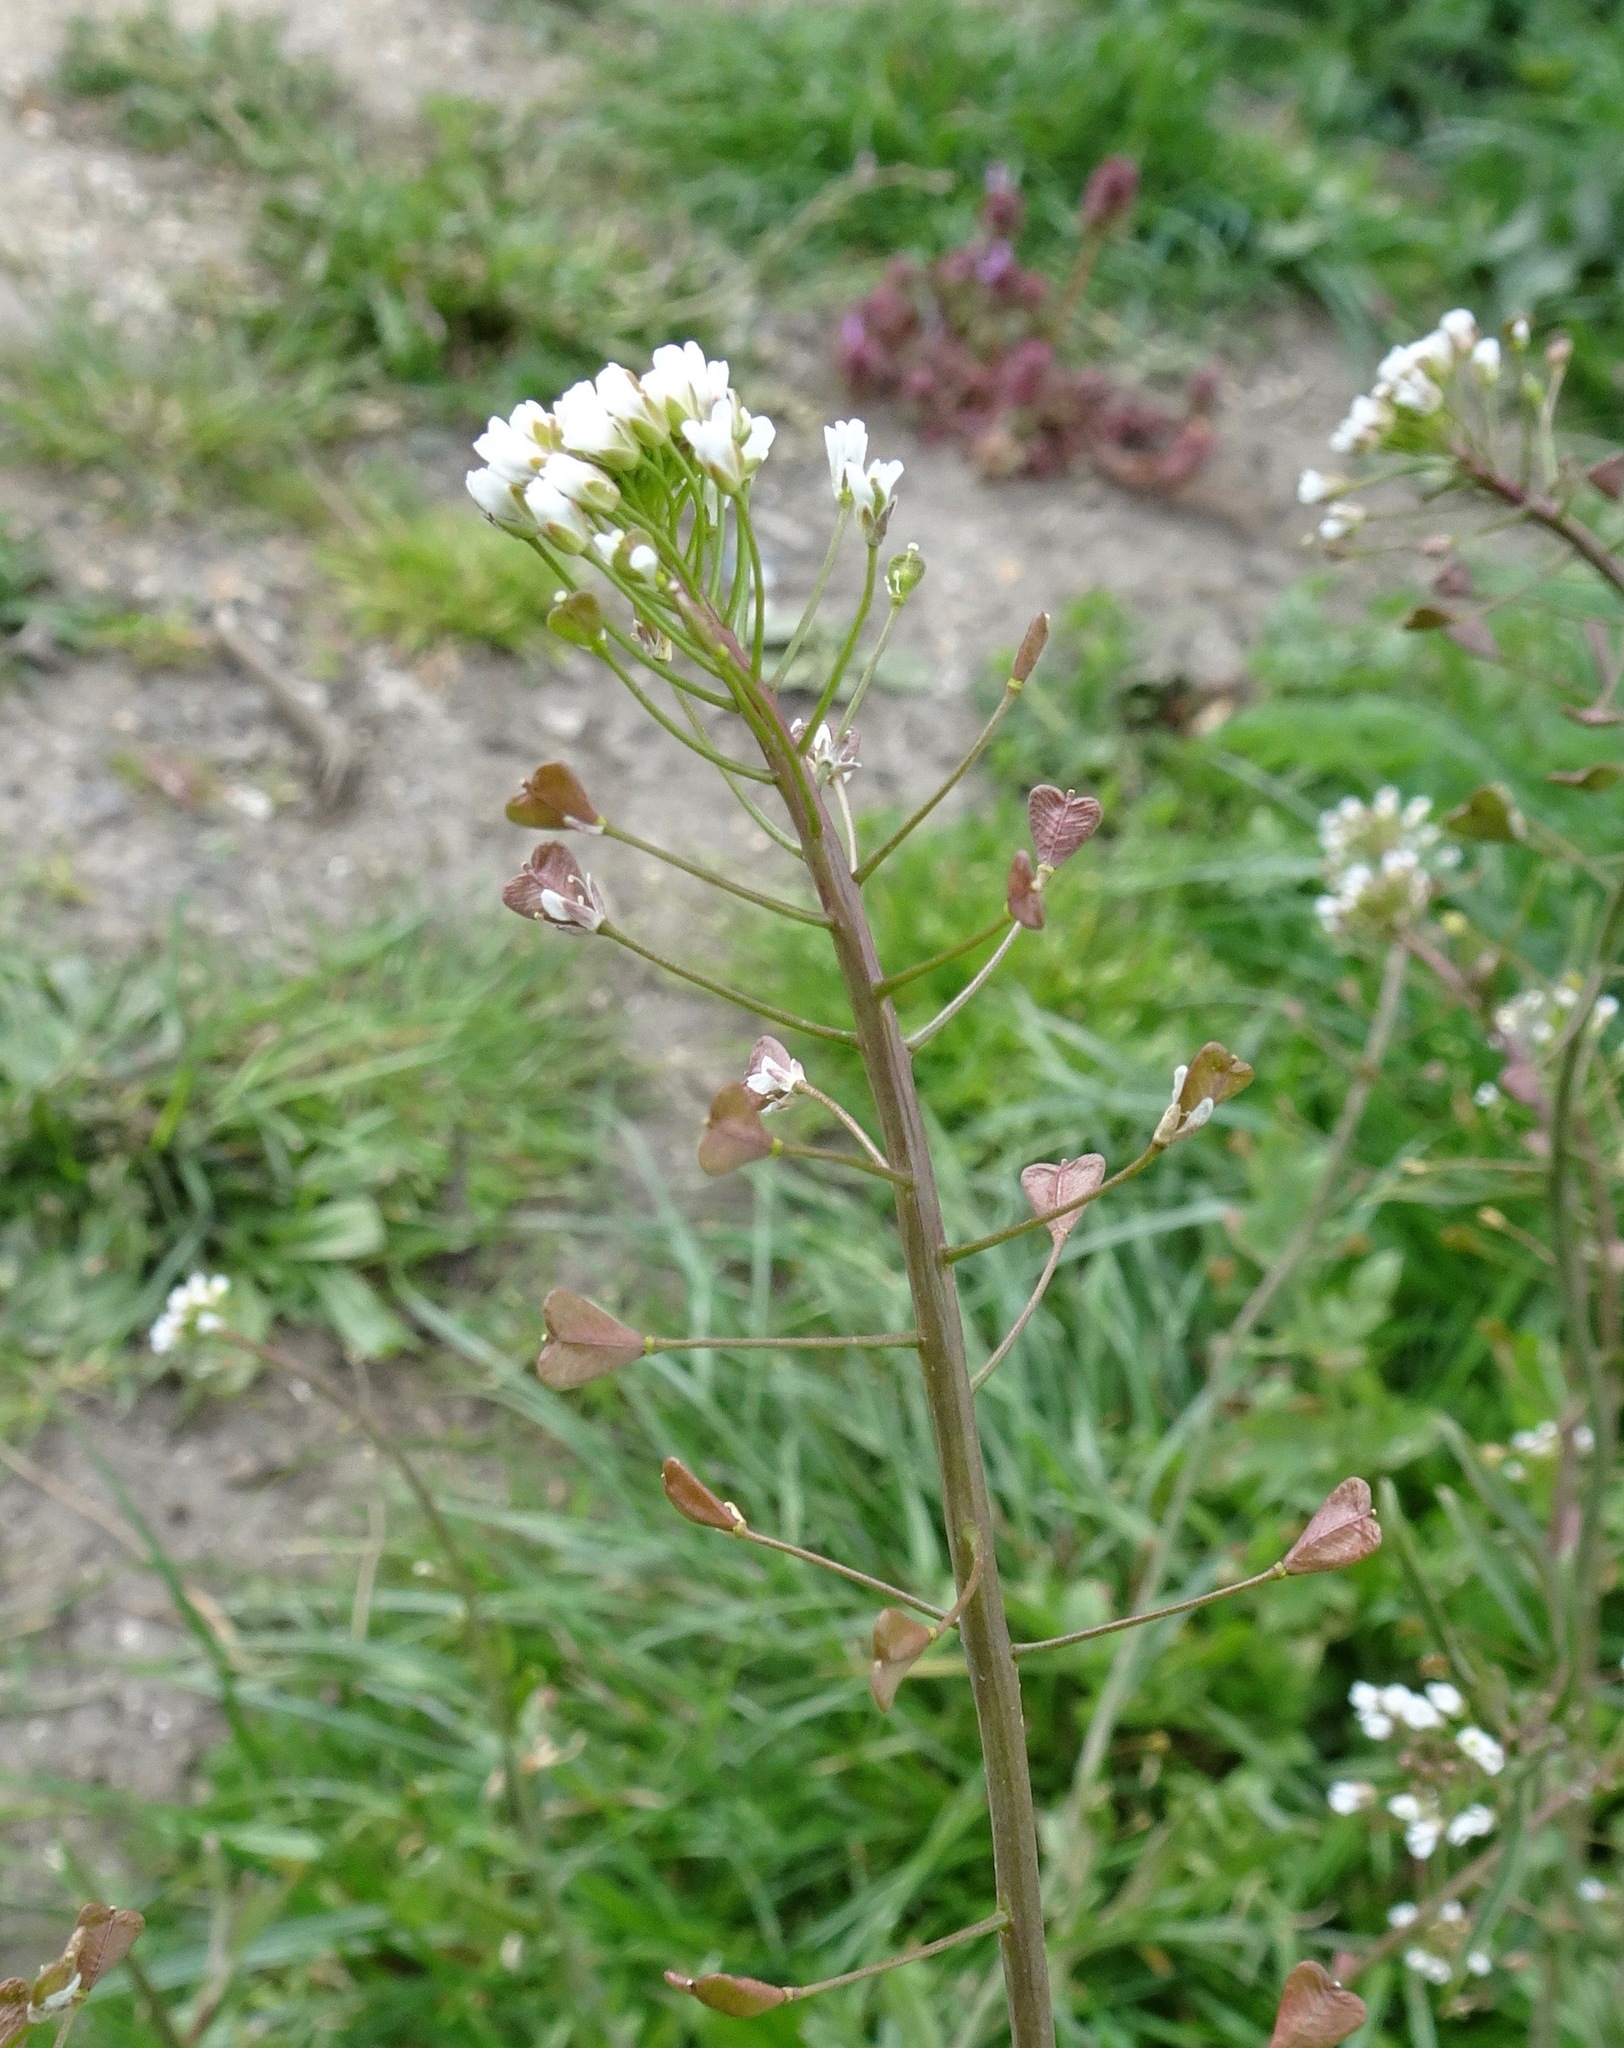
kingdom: Plantae
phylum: Tracheophyta
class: Magnoliopsida
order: Brassicales
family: Brassicaceae
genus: Capsella
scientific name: Capsella bursa-pastoris
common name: Shepherd's purse
